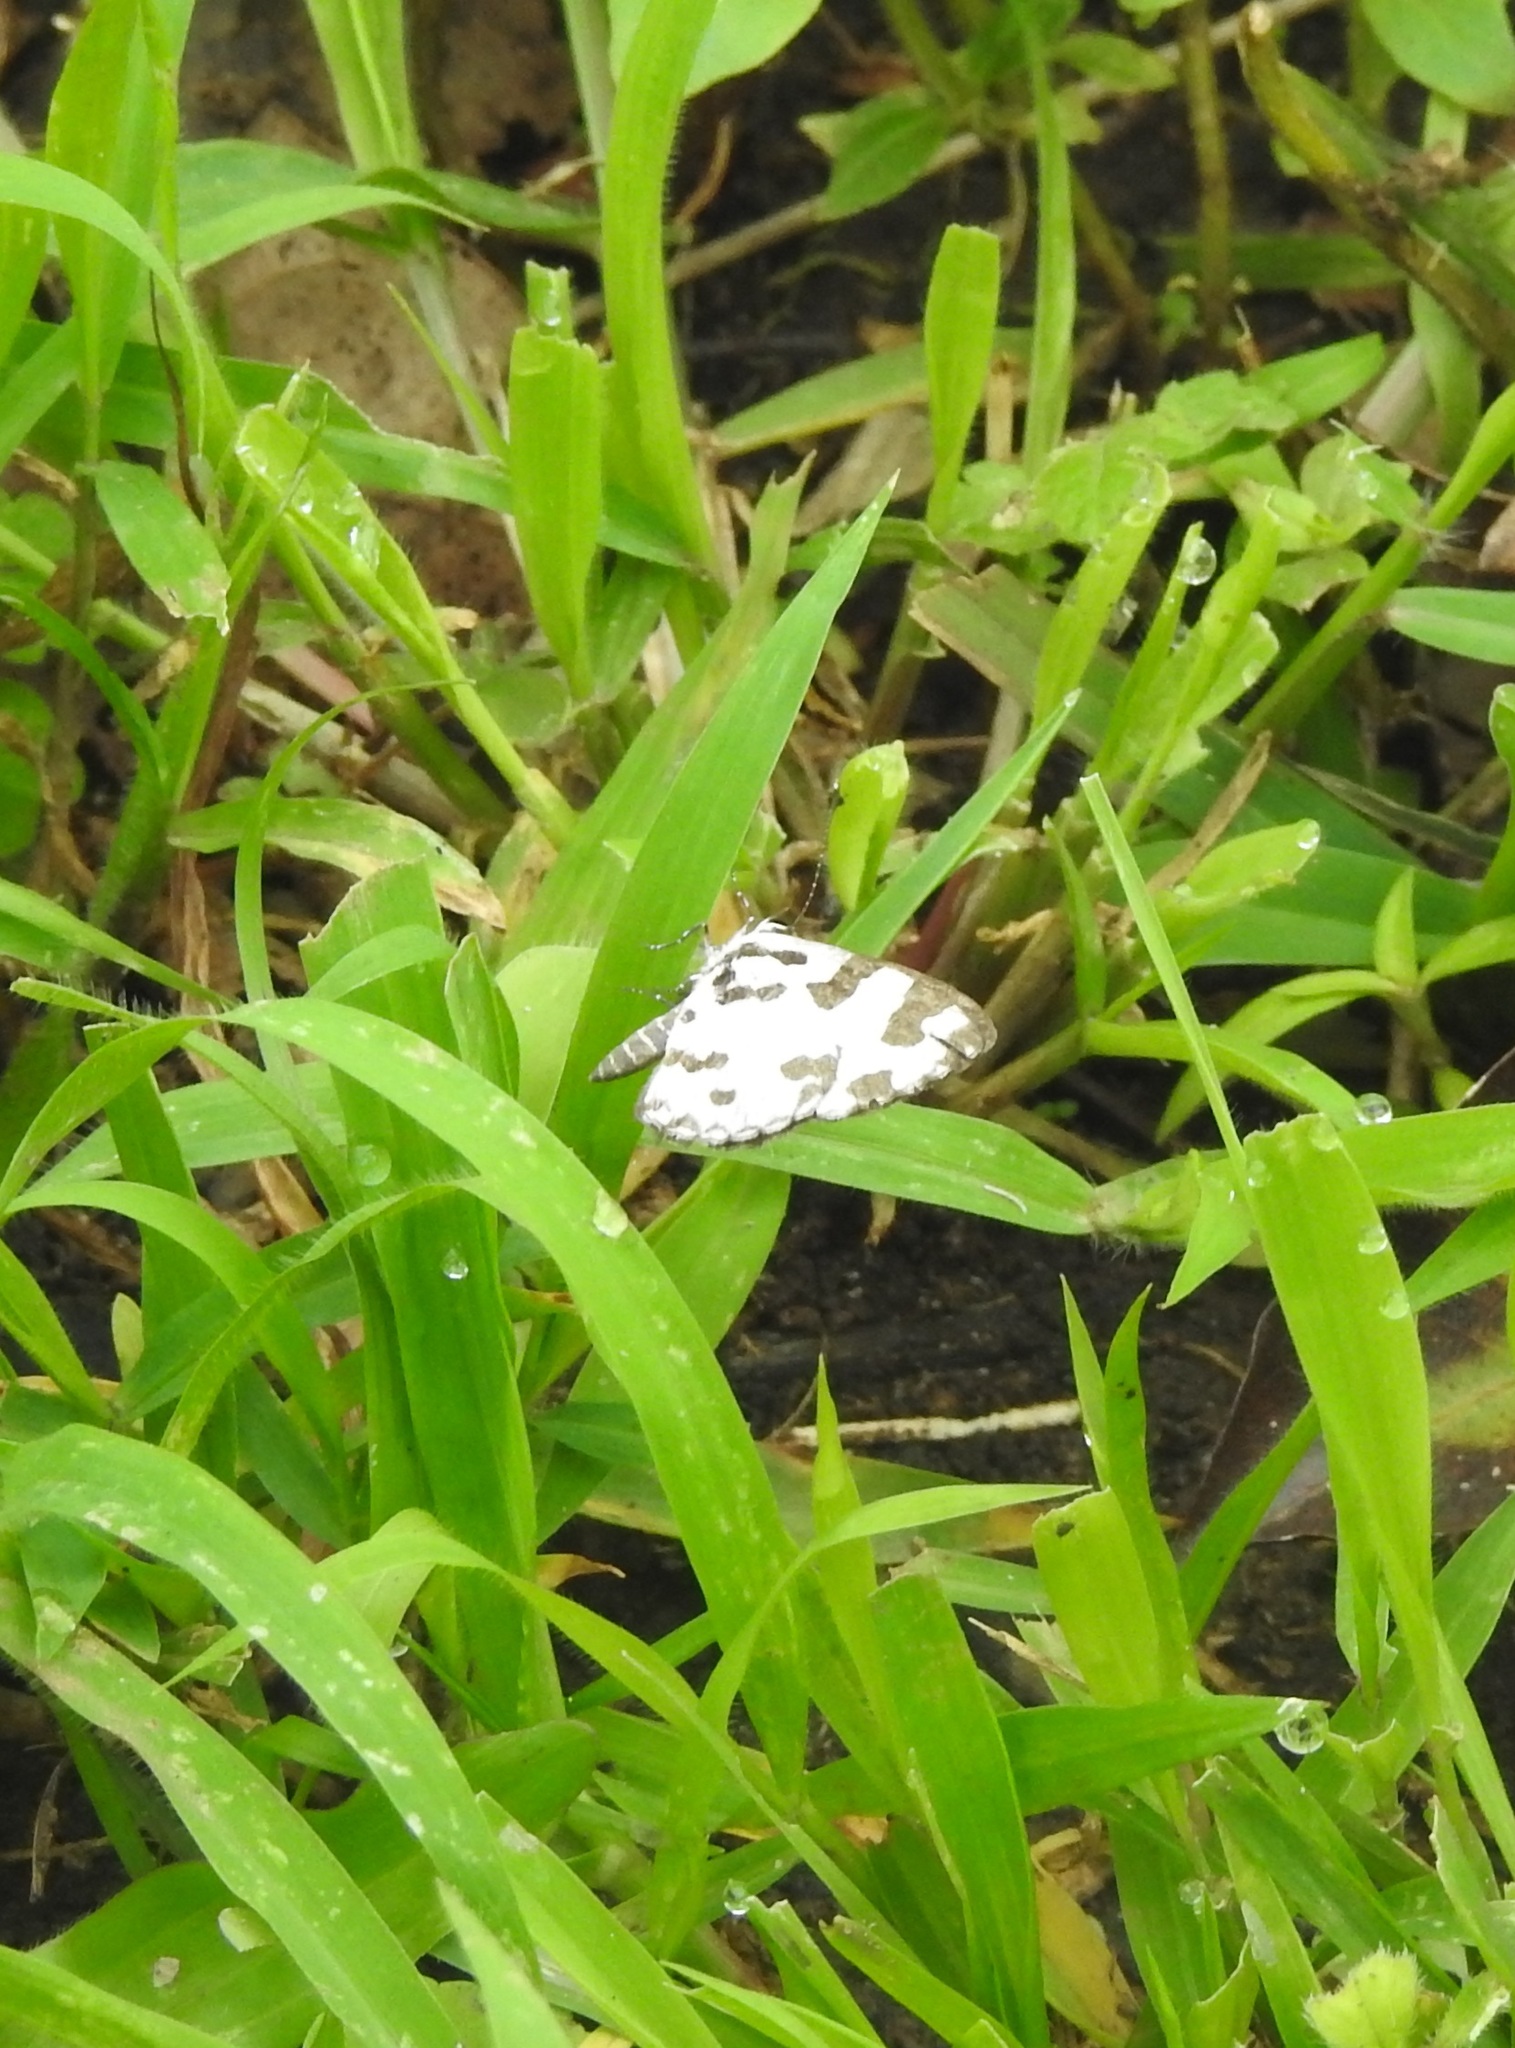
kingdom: Animalia
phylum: Arthropoda
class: Insecta
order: Lepidoptera
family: Lycaenidae
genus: Caleta
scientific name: Caleta decidia
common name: Angled pierrot
